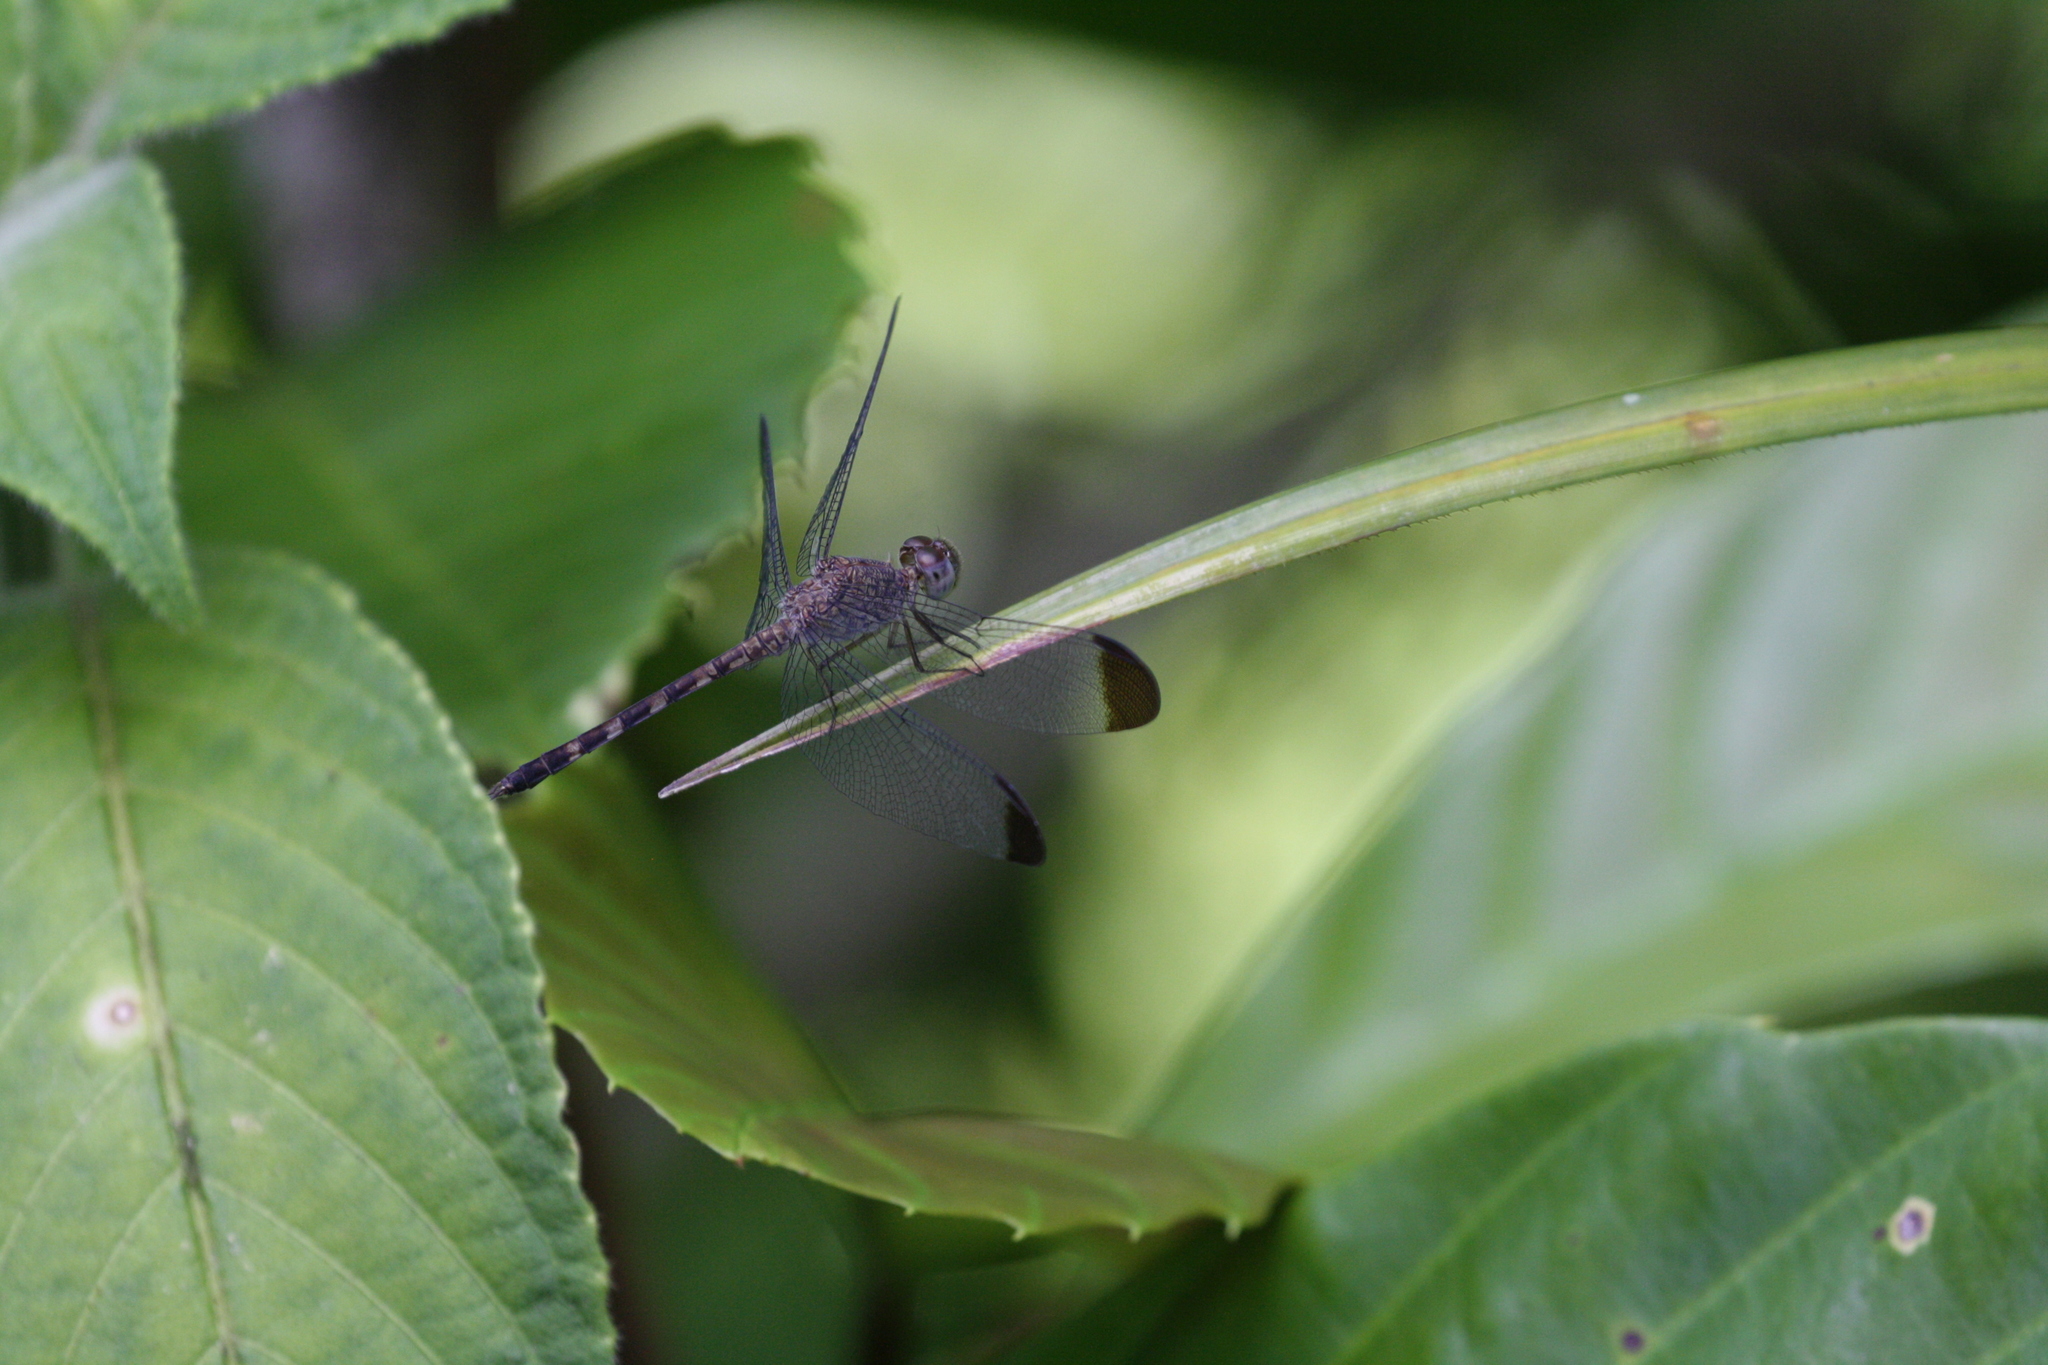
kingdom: Animalia
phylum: Arthropoda
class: Insecta
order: Odonata
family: Libellulidae
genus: Uracis
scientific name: Uracis imbuta
